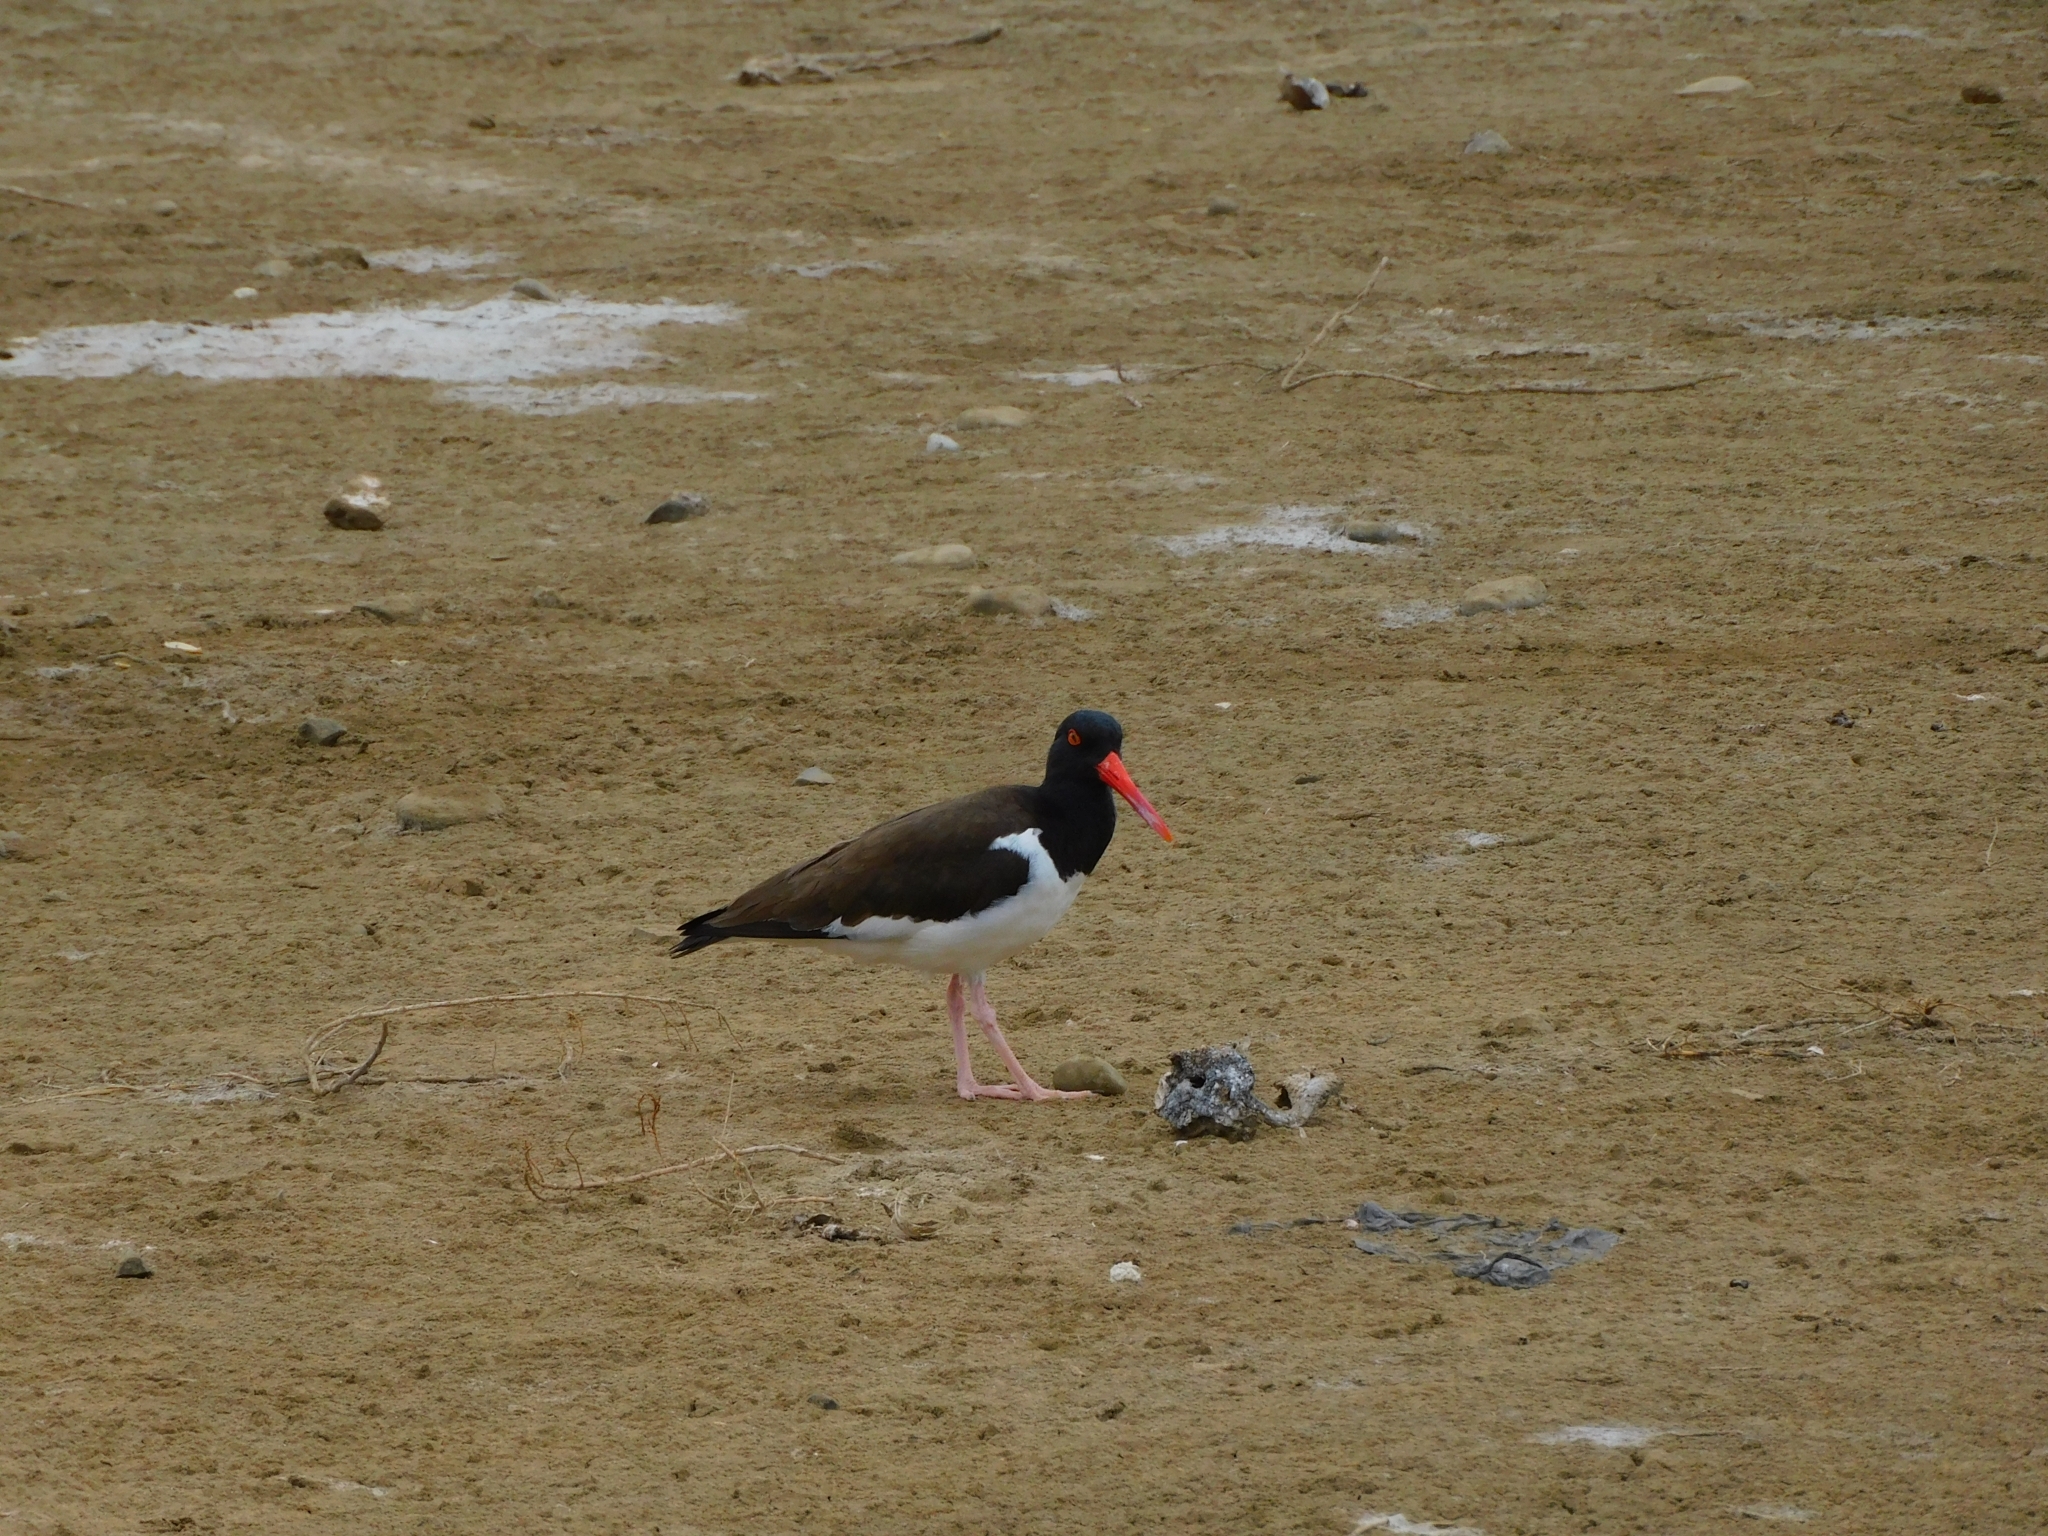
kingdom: Animalia
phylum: Chordata
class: Aves
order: Charadriiformes
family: Haematopodidae
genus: Haematopus
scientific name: Haematopus palliatus
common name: American oystercatcher
